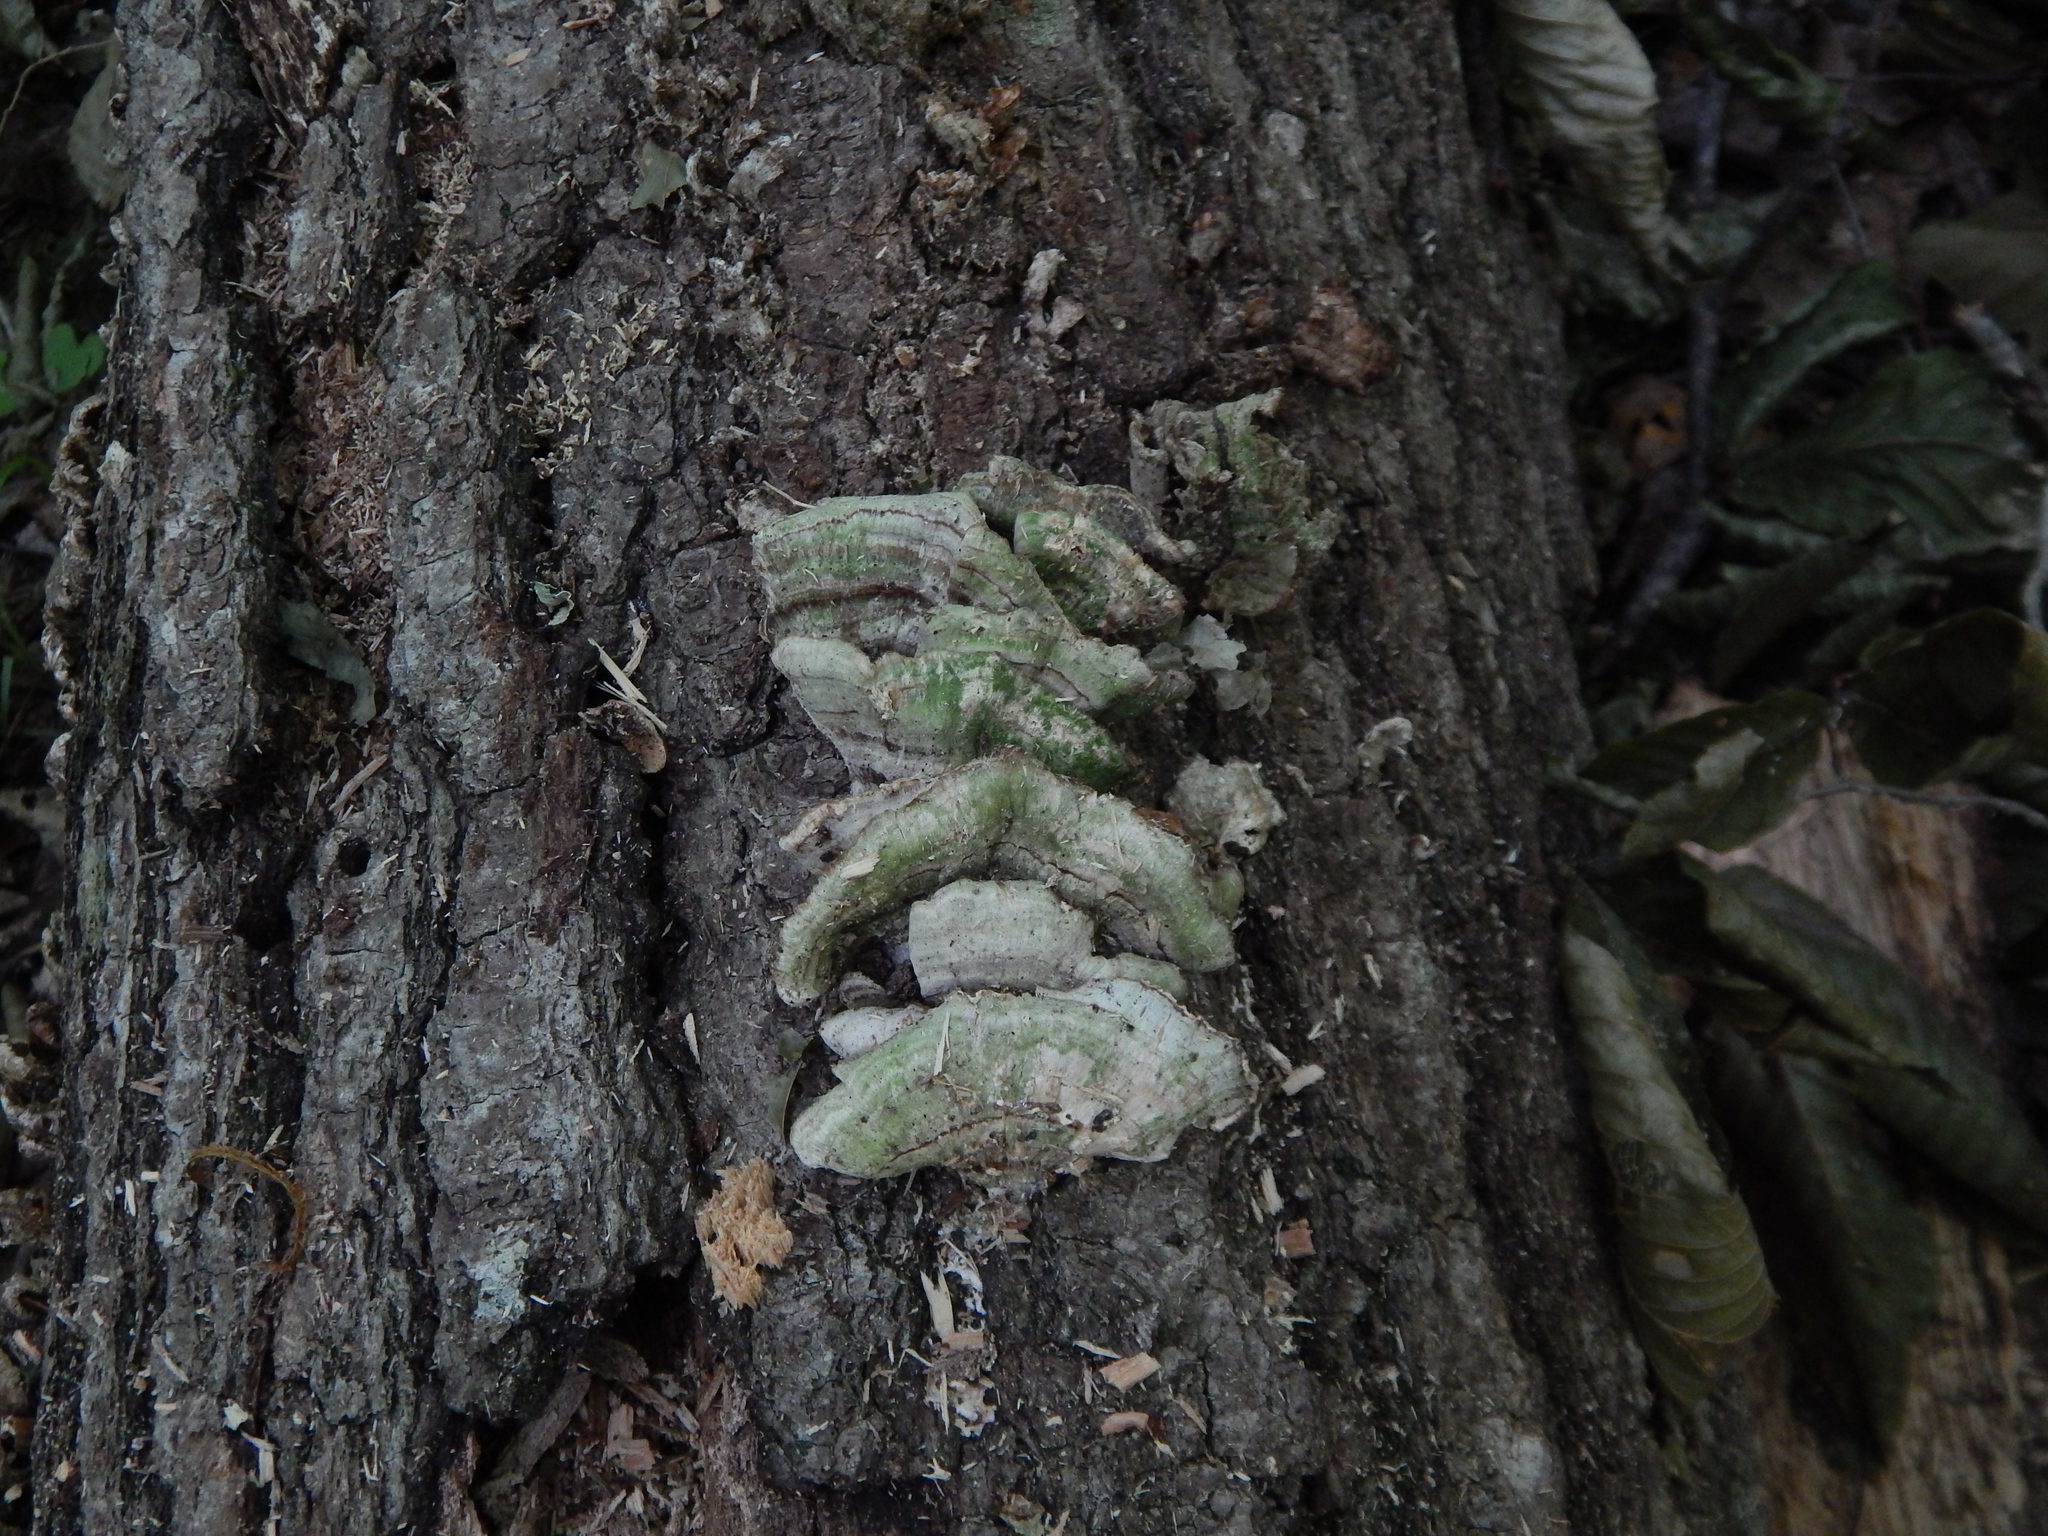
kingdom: Fungi
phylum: Basidiomycota
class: Agaricomycetes
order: Polyporales
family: Polyporaceae
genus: Trametes
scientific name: Trametes
